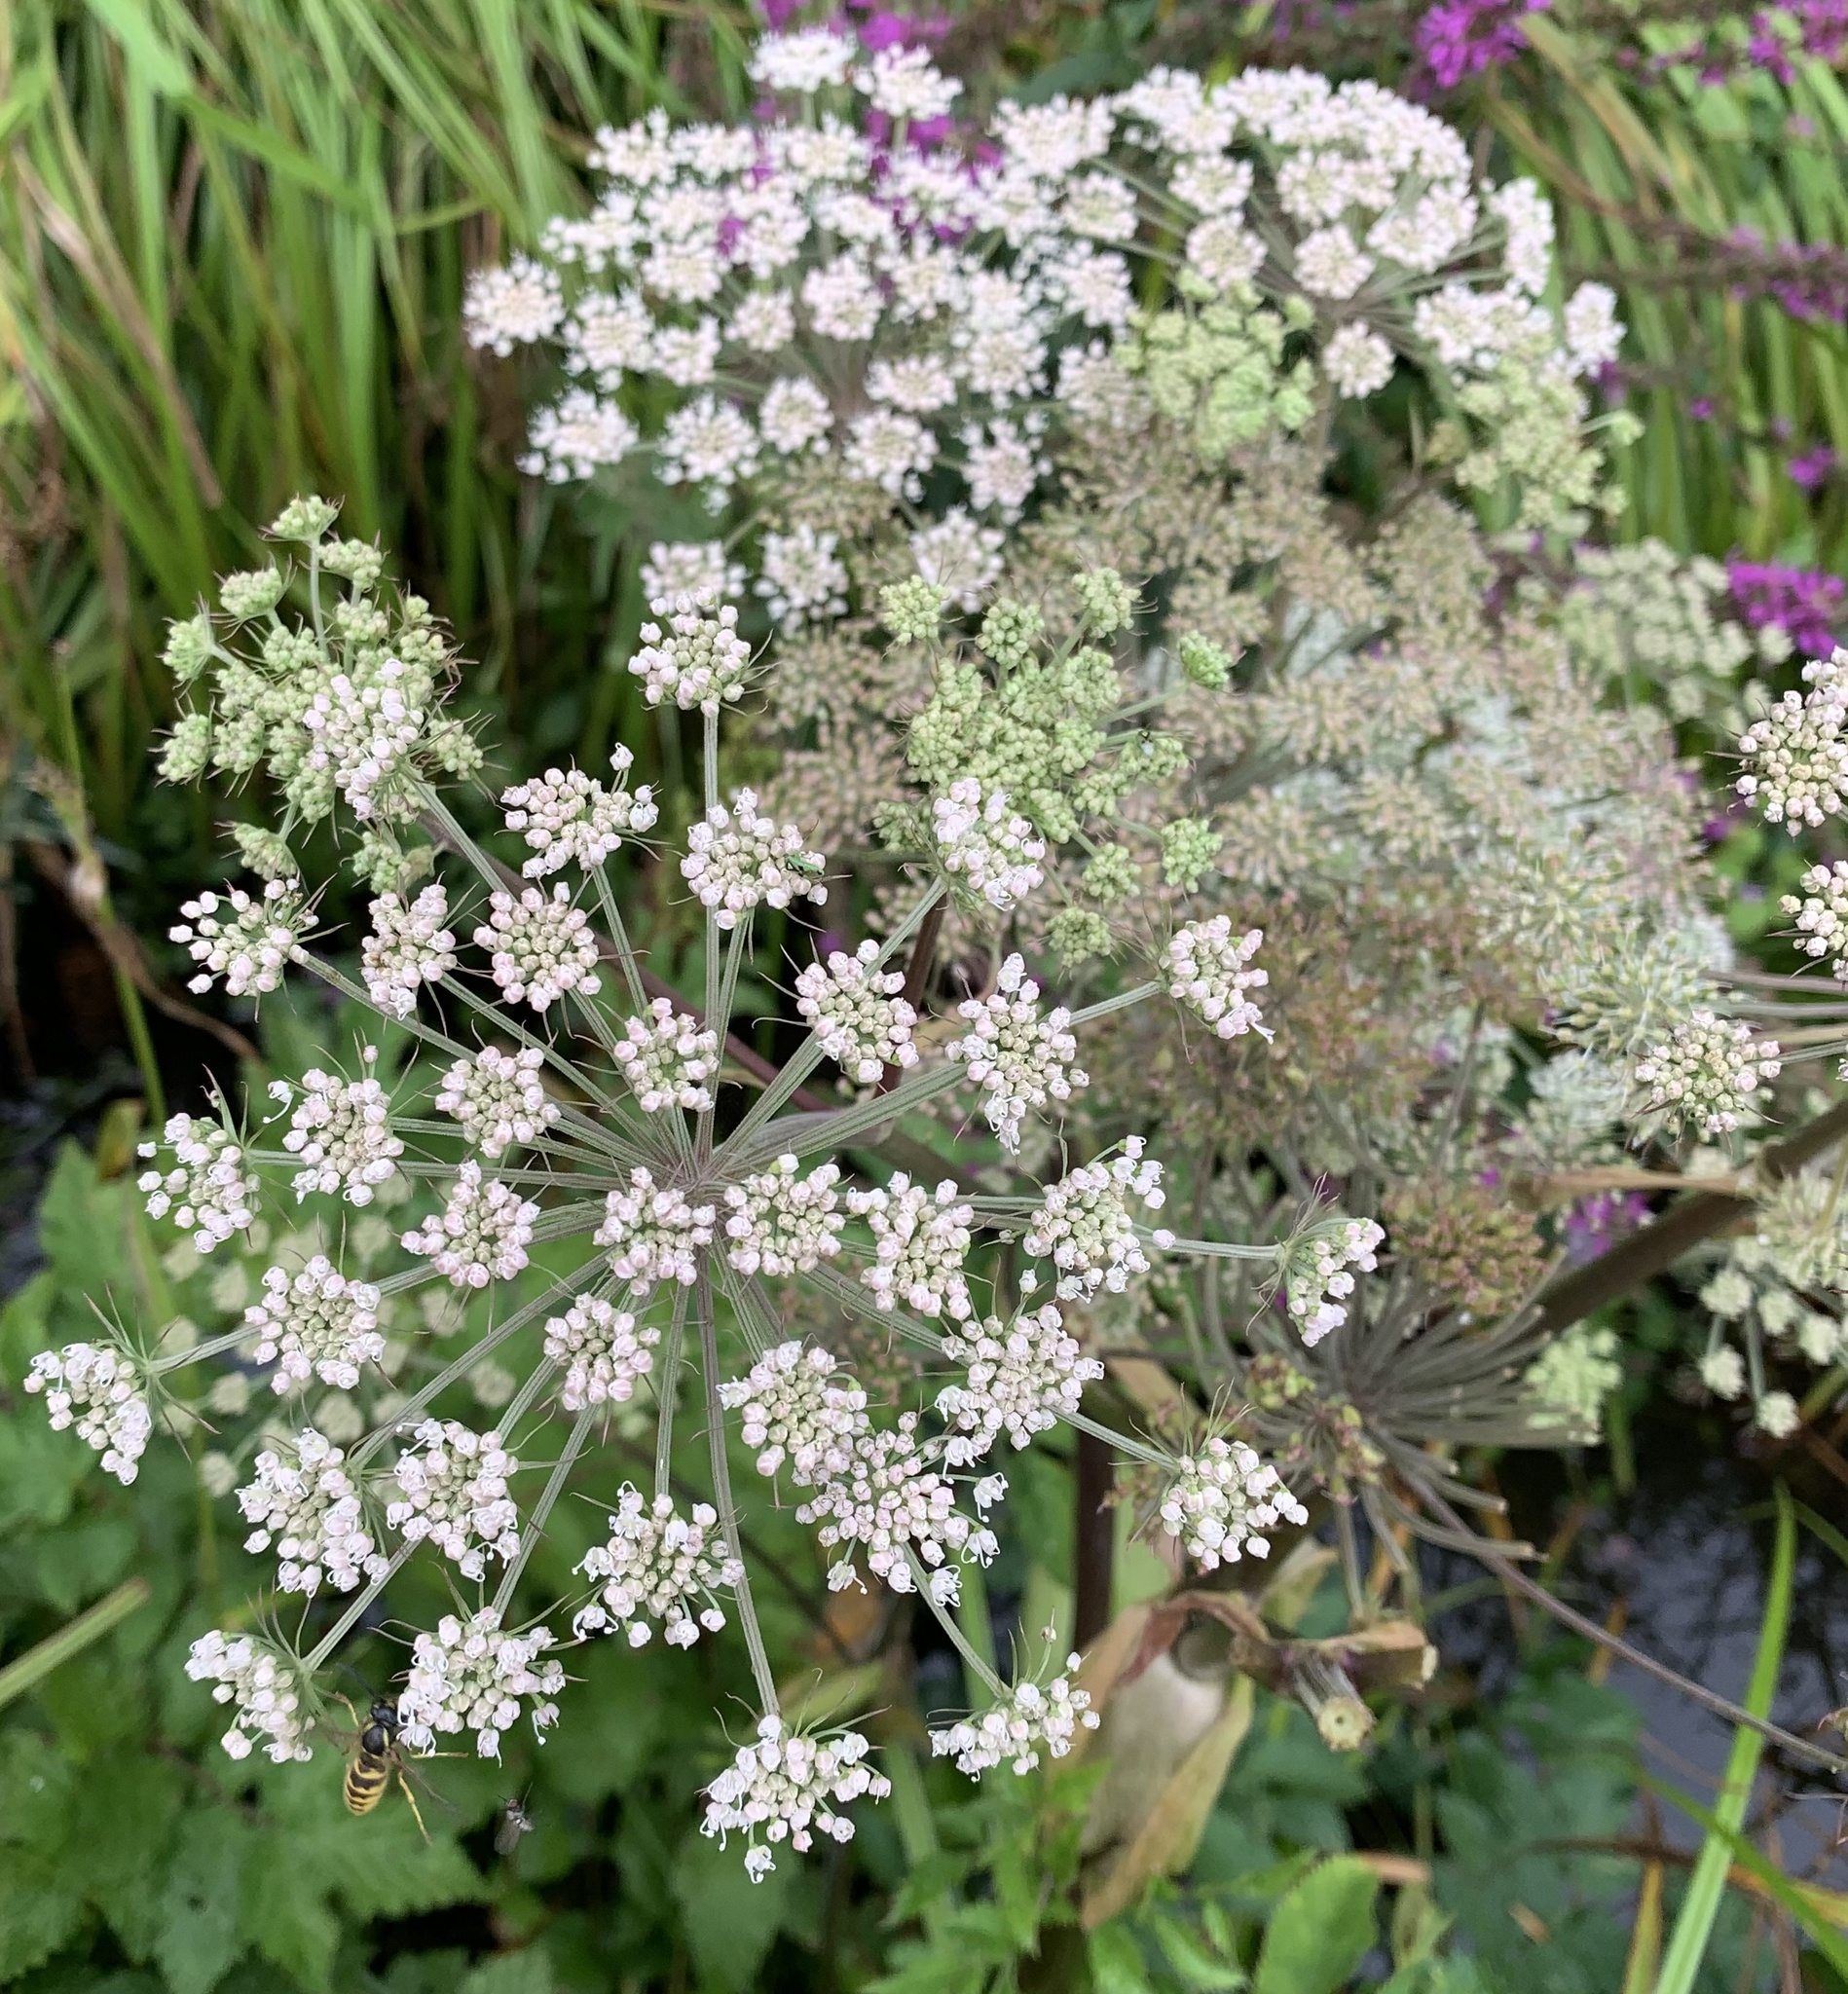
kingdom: Plantae
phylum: Tracheophyta
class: Magnoliopsida
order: Apiales
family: Apiaceae
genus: Angelica
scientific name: Angelica sylvestris
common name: Wild angelica
